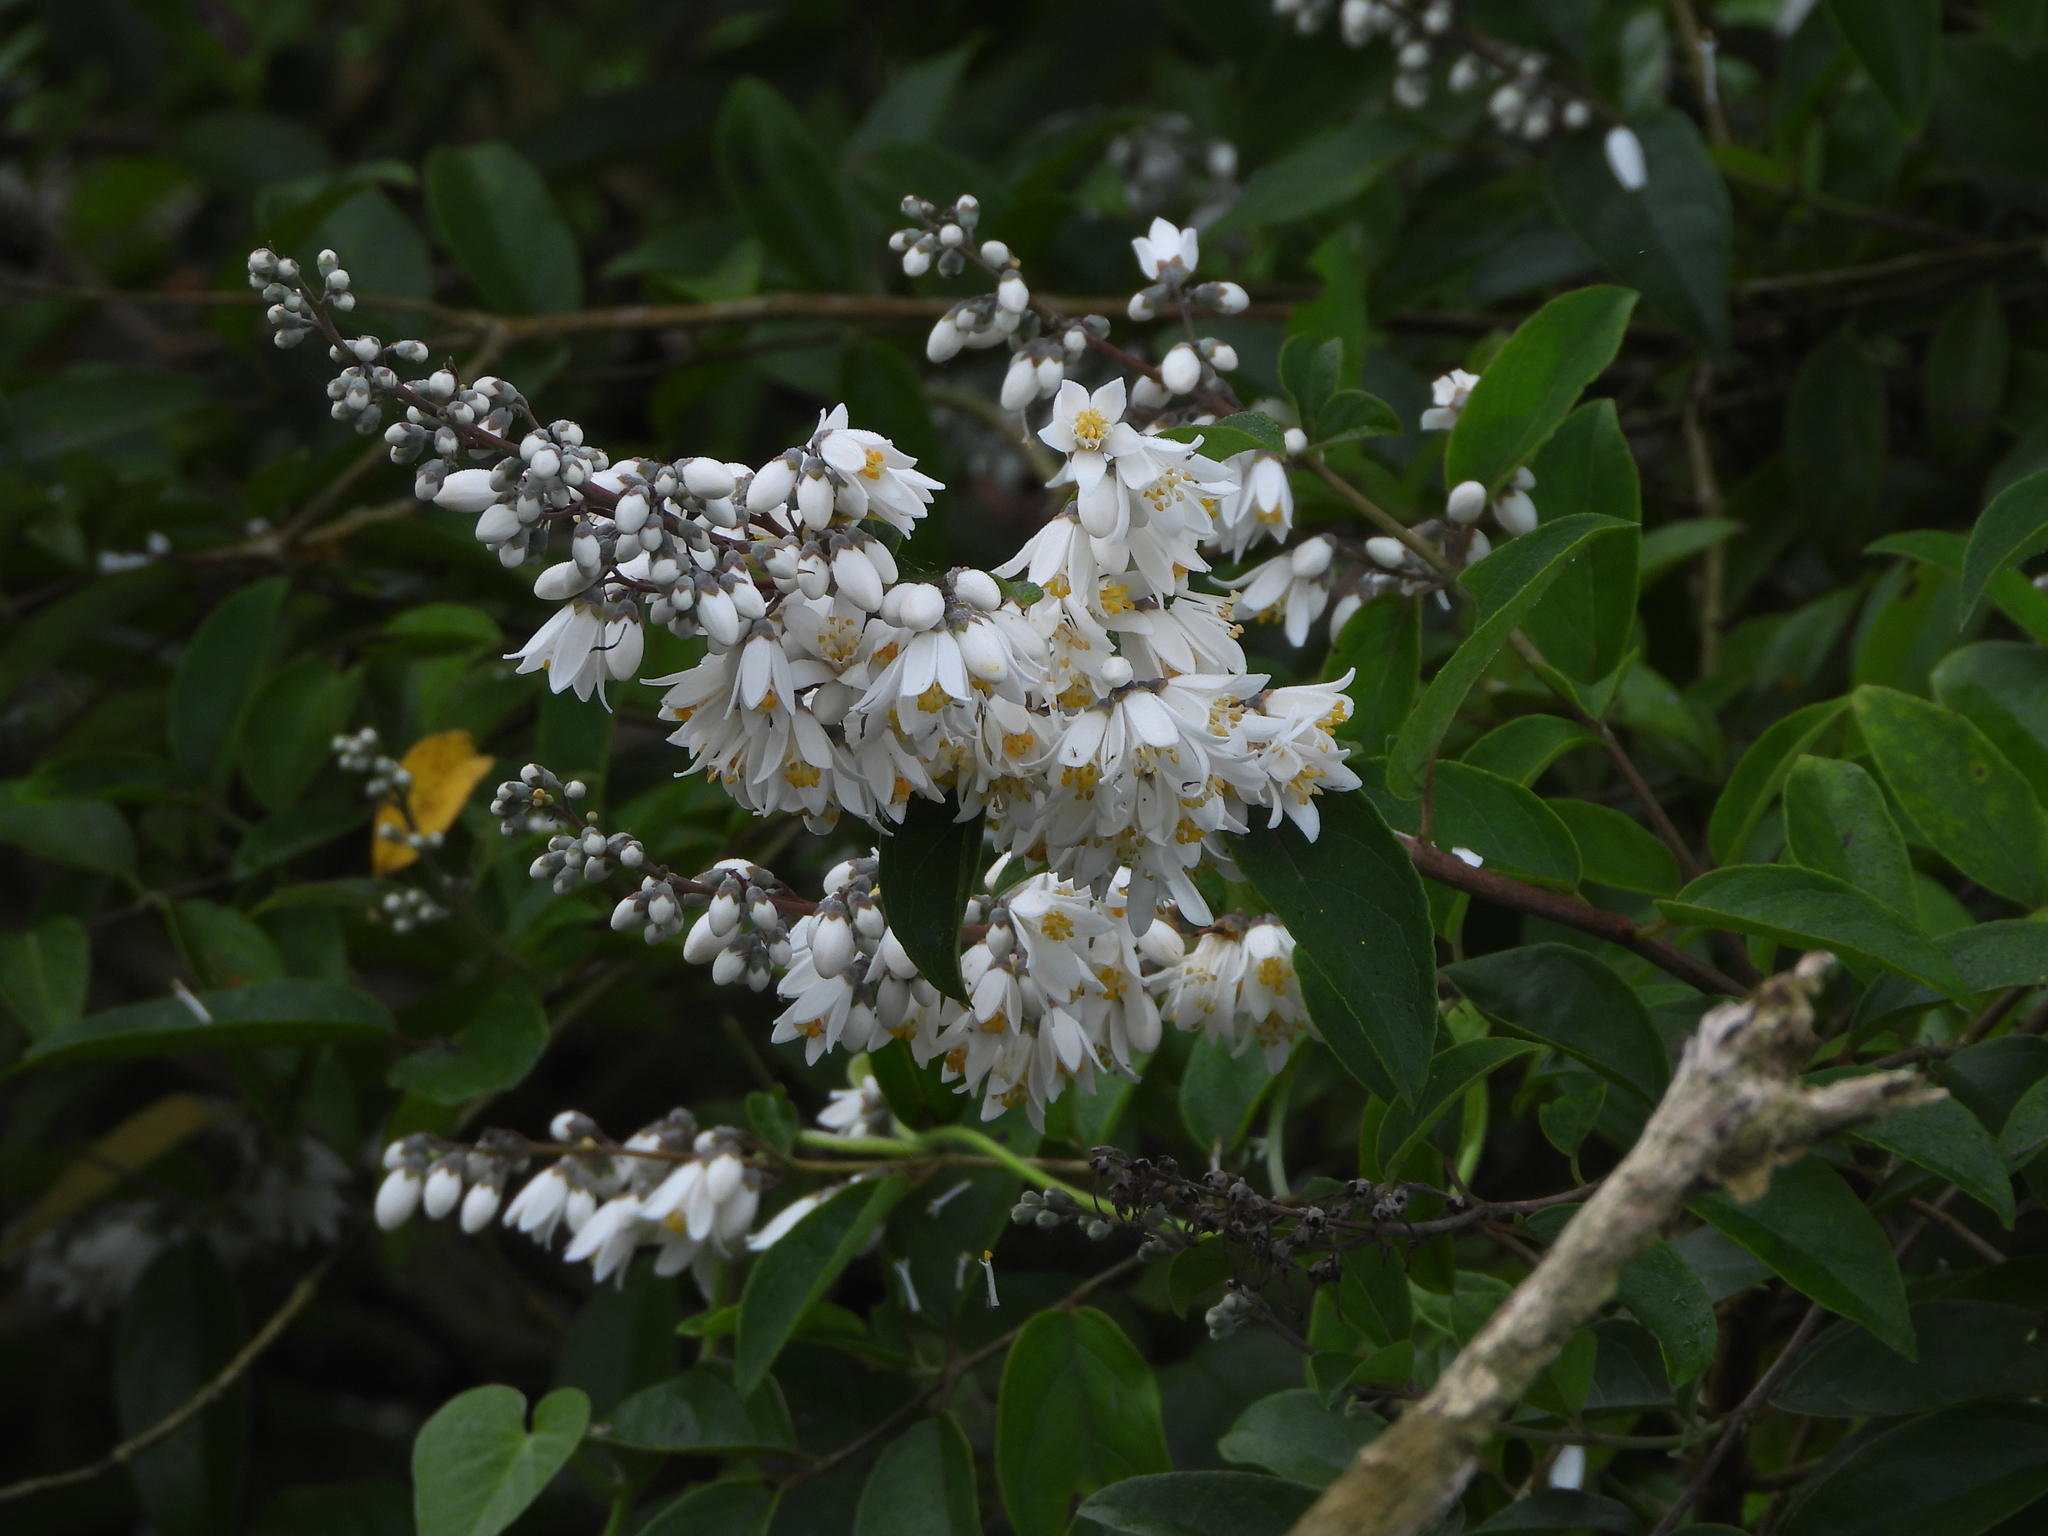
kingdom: Plantae
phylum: Tracheophyta
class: Magnoliopsida
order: Cornales
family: Hydrangeaceae
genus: Deutzia
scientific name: Deutzia pulchra
